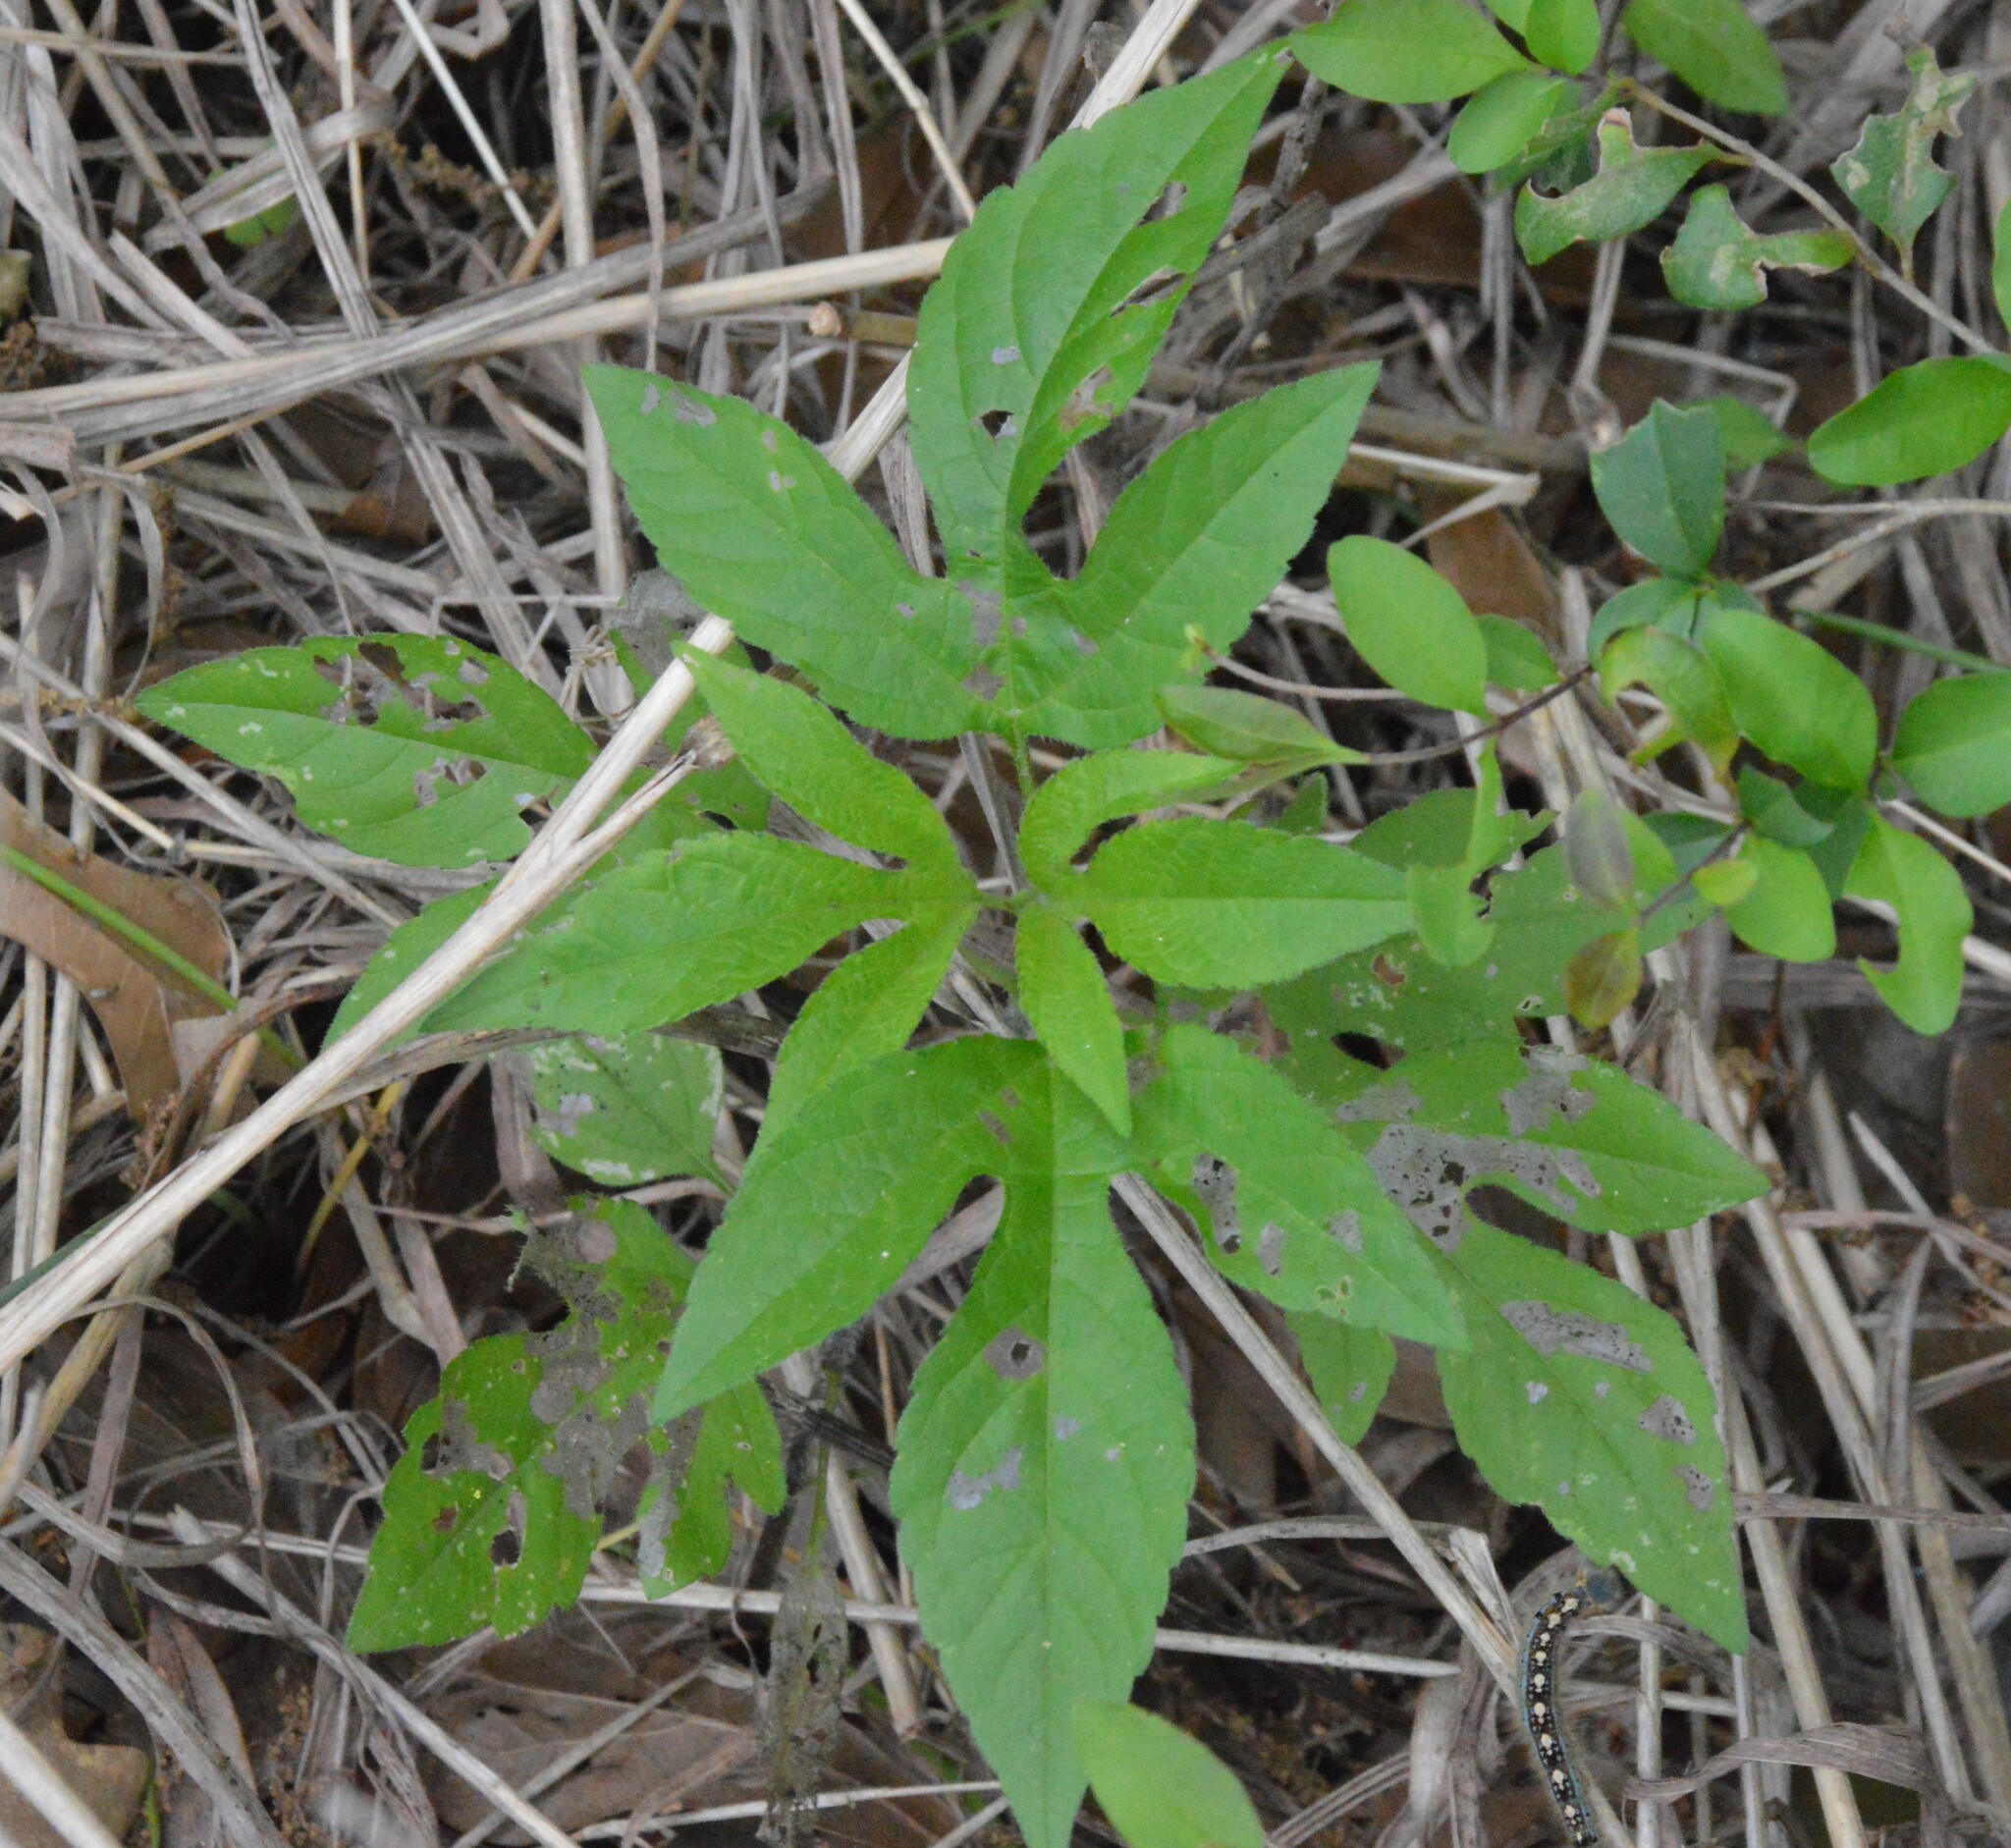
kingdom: Plantae
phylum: Tracheophyta
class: Magnoliopsida
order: Asterales
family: Asteraceae
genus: Ambrosia
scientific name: Ambrosia trifida
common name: Giant ragweed
